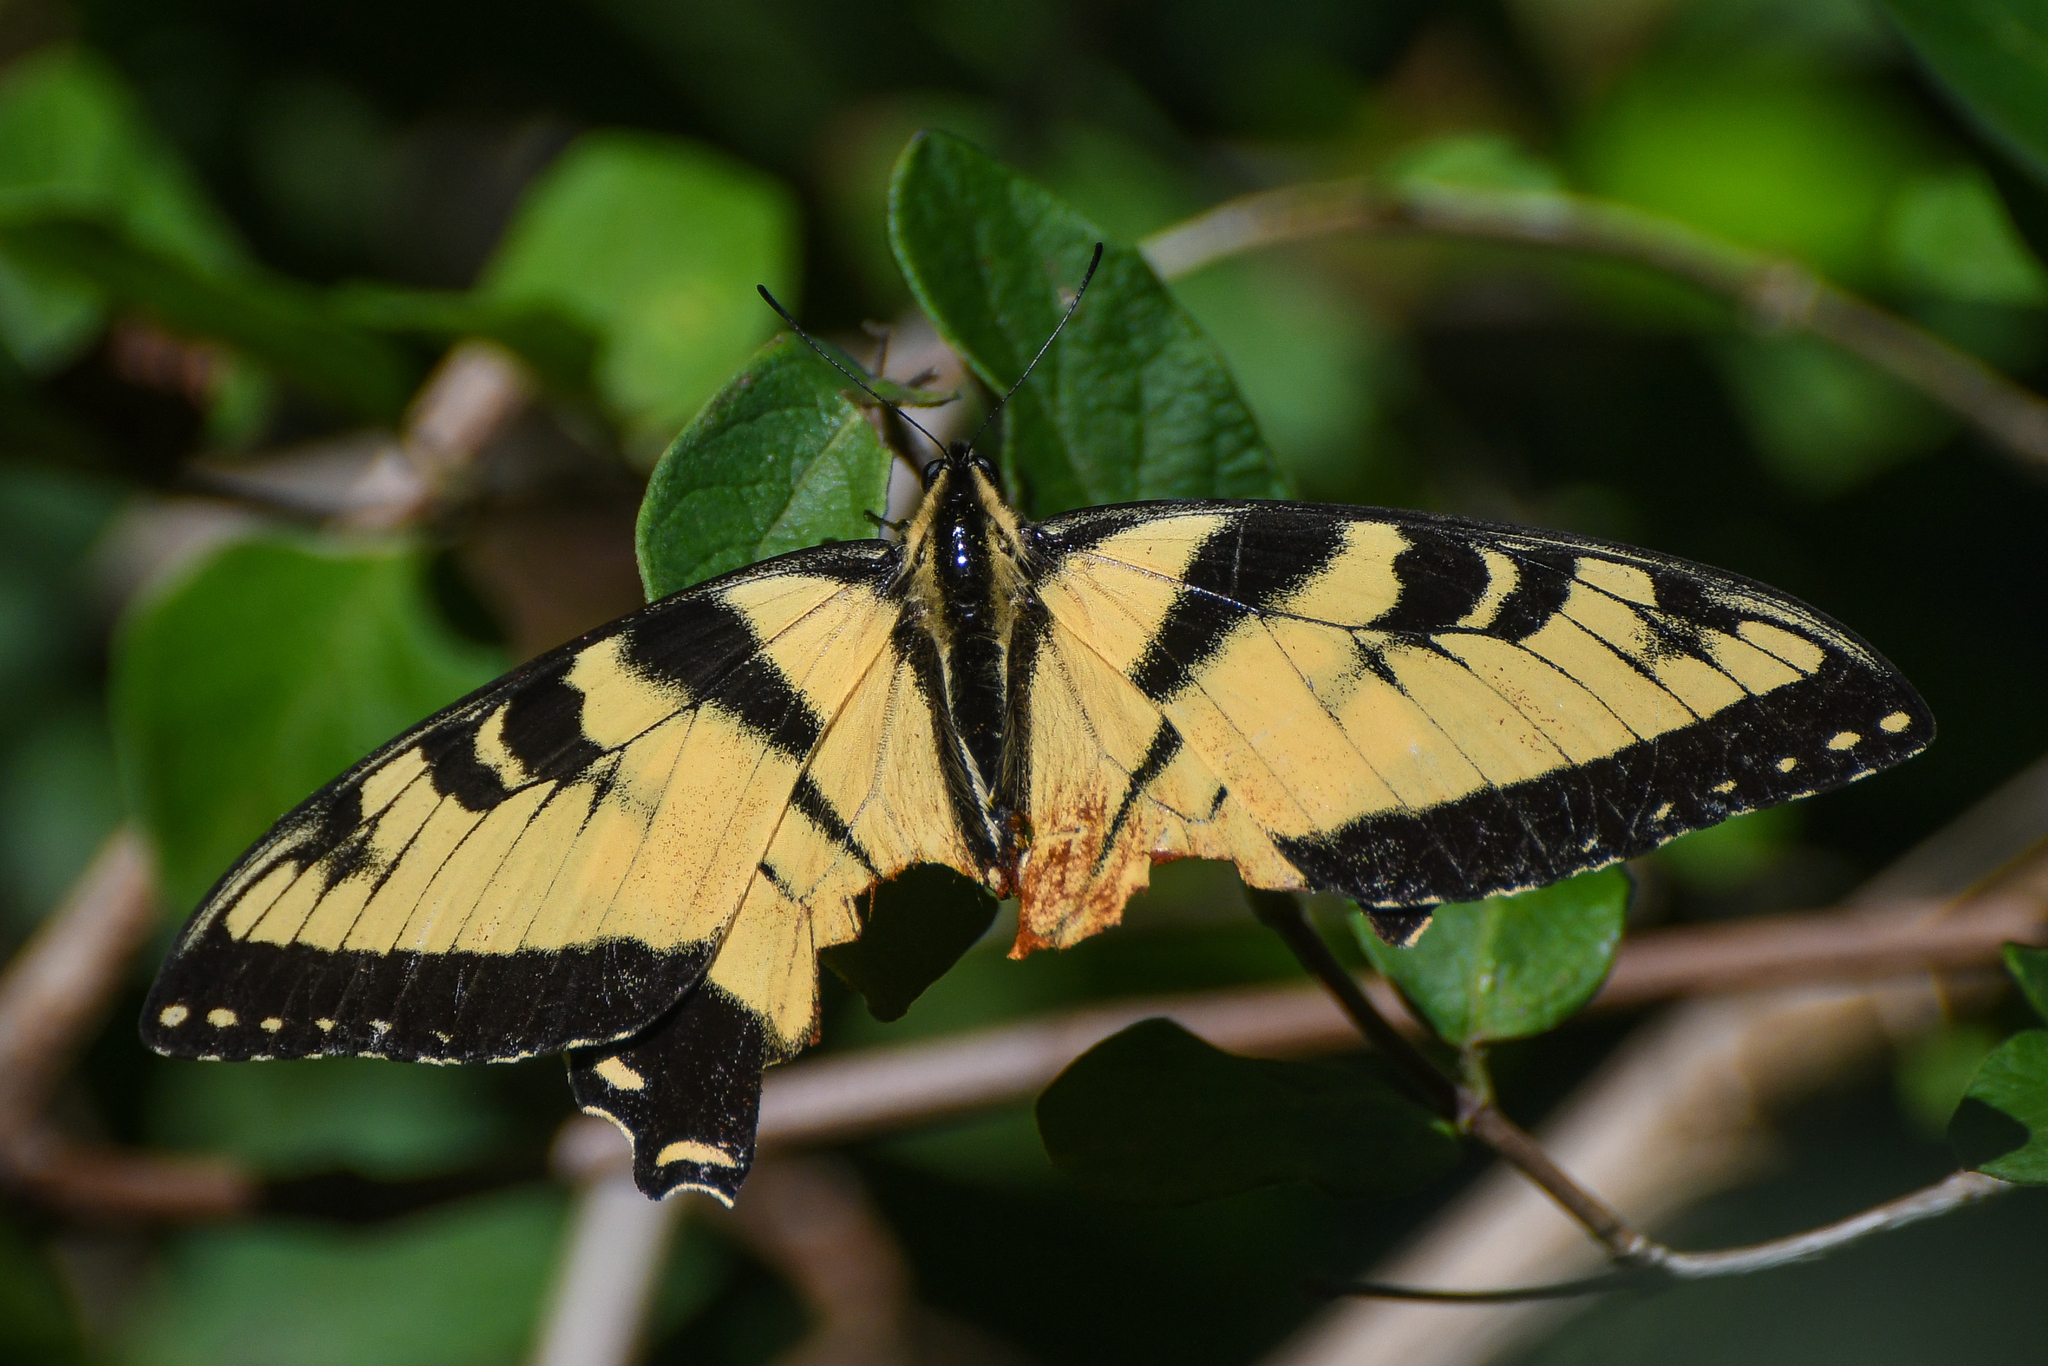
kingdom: Animalia
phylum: Arthropoda
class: Insecta
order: Lepidoptera
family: Papilionidae
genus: Papilio
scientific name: Papilio glaucus
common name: Tiger swallowtail
